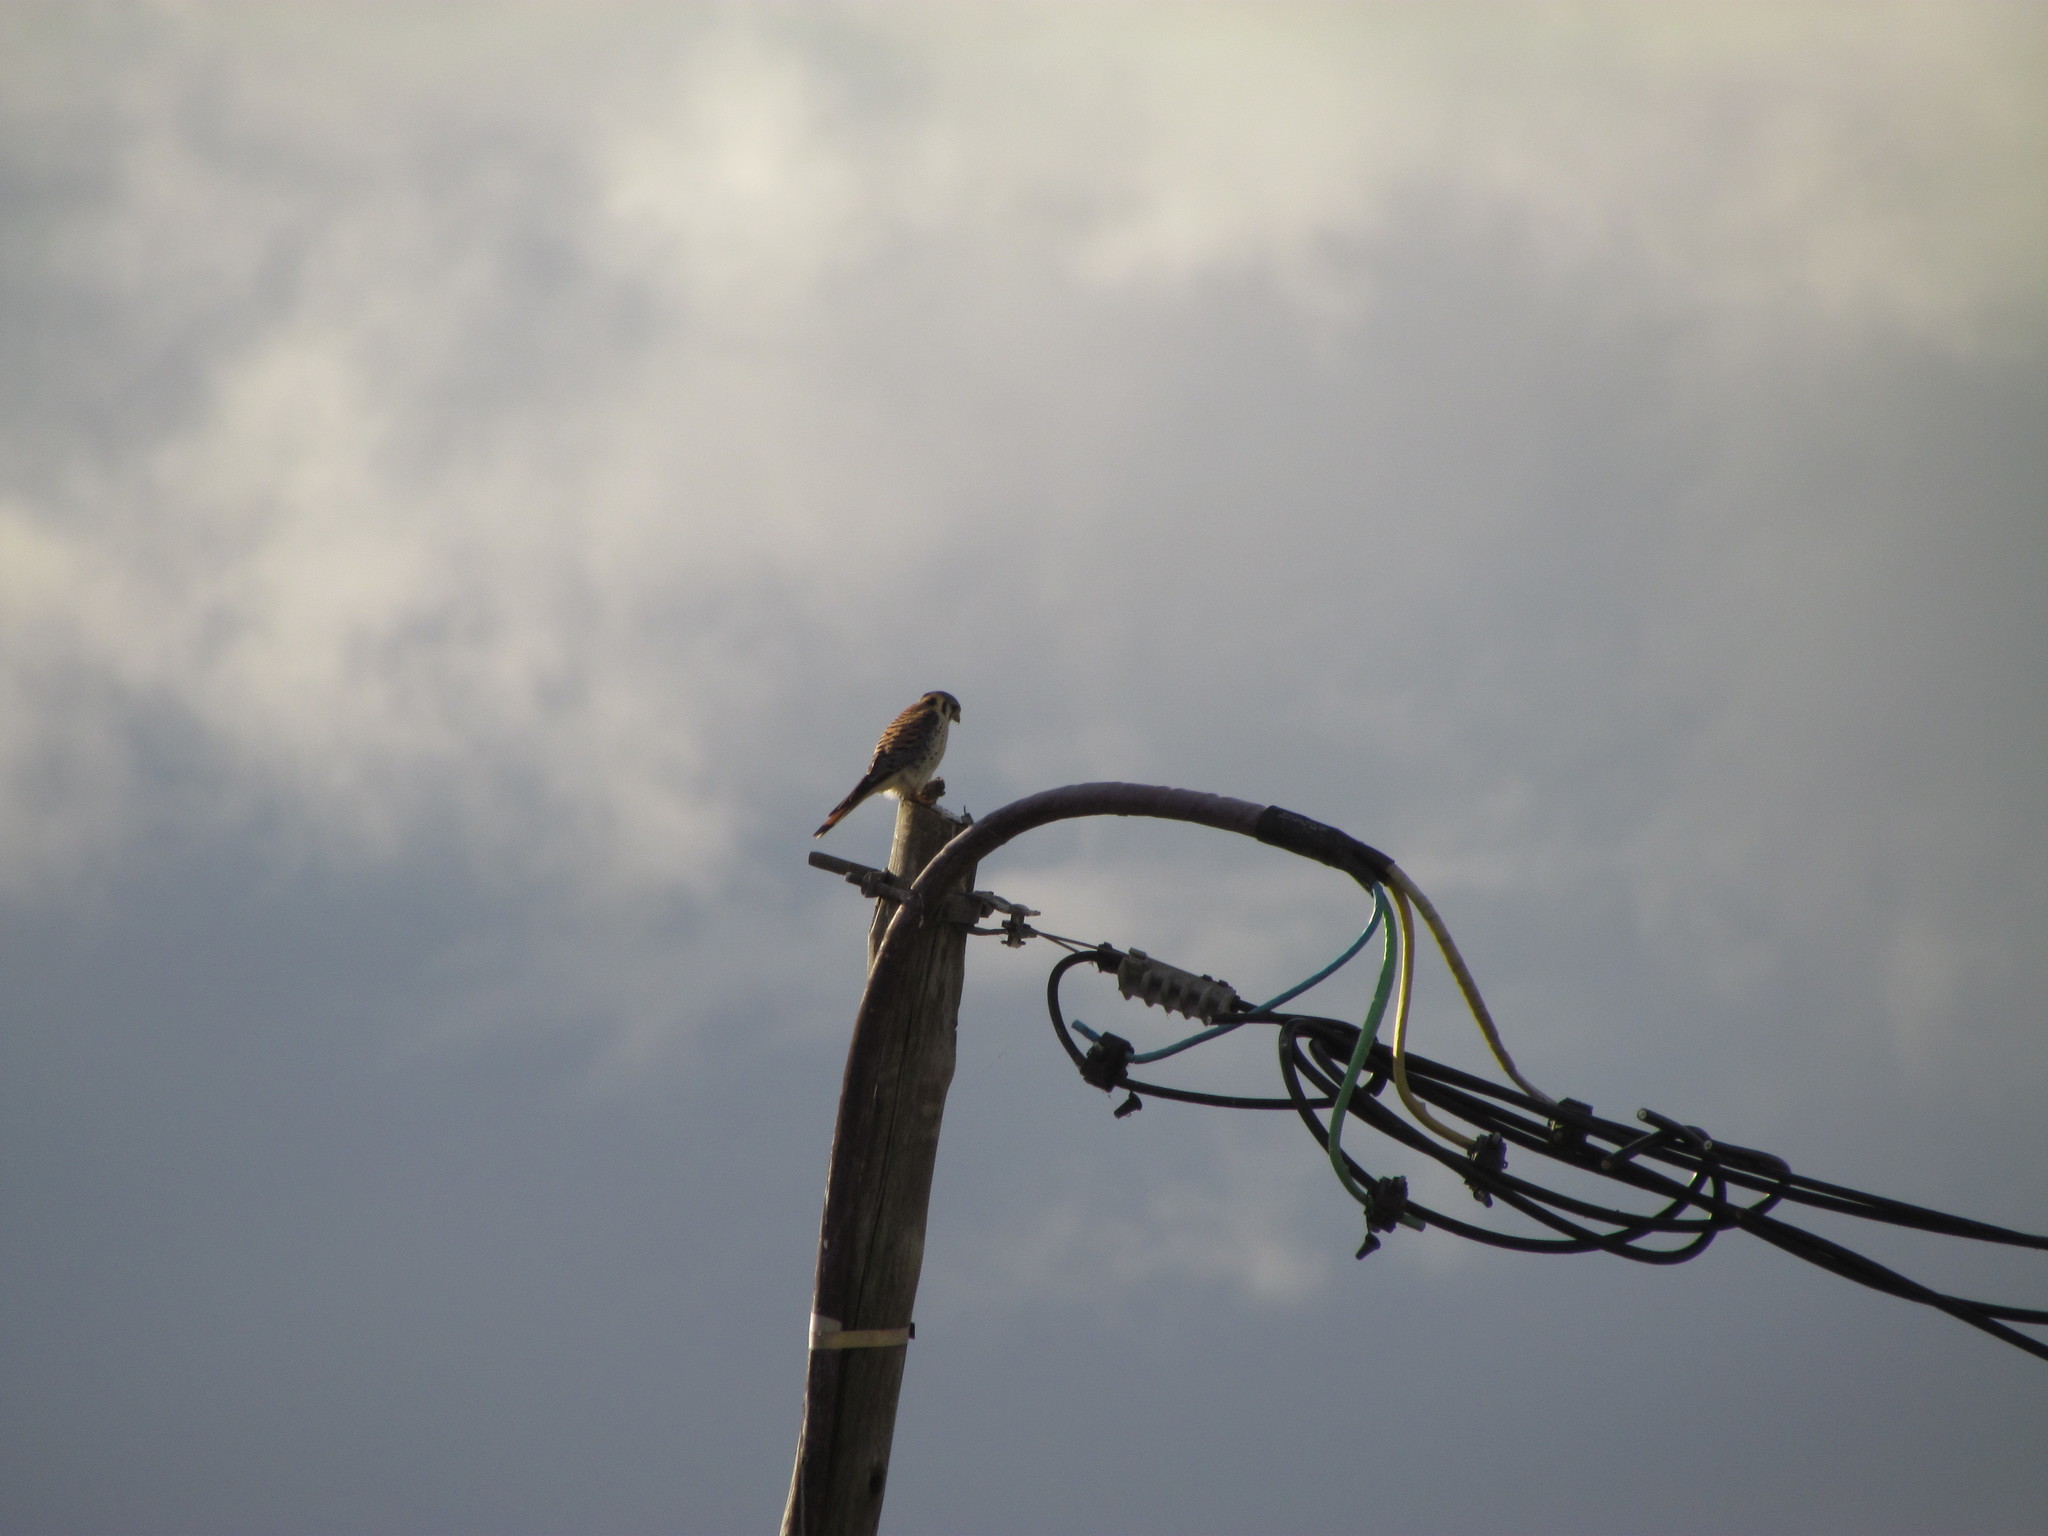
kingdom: Animalia
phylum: Chordata
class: Aves
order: Falconiformes
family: Falconidae
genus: Falco
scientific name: Falco sparverius
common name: American kestrel
